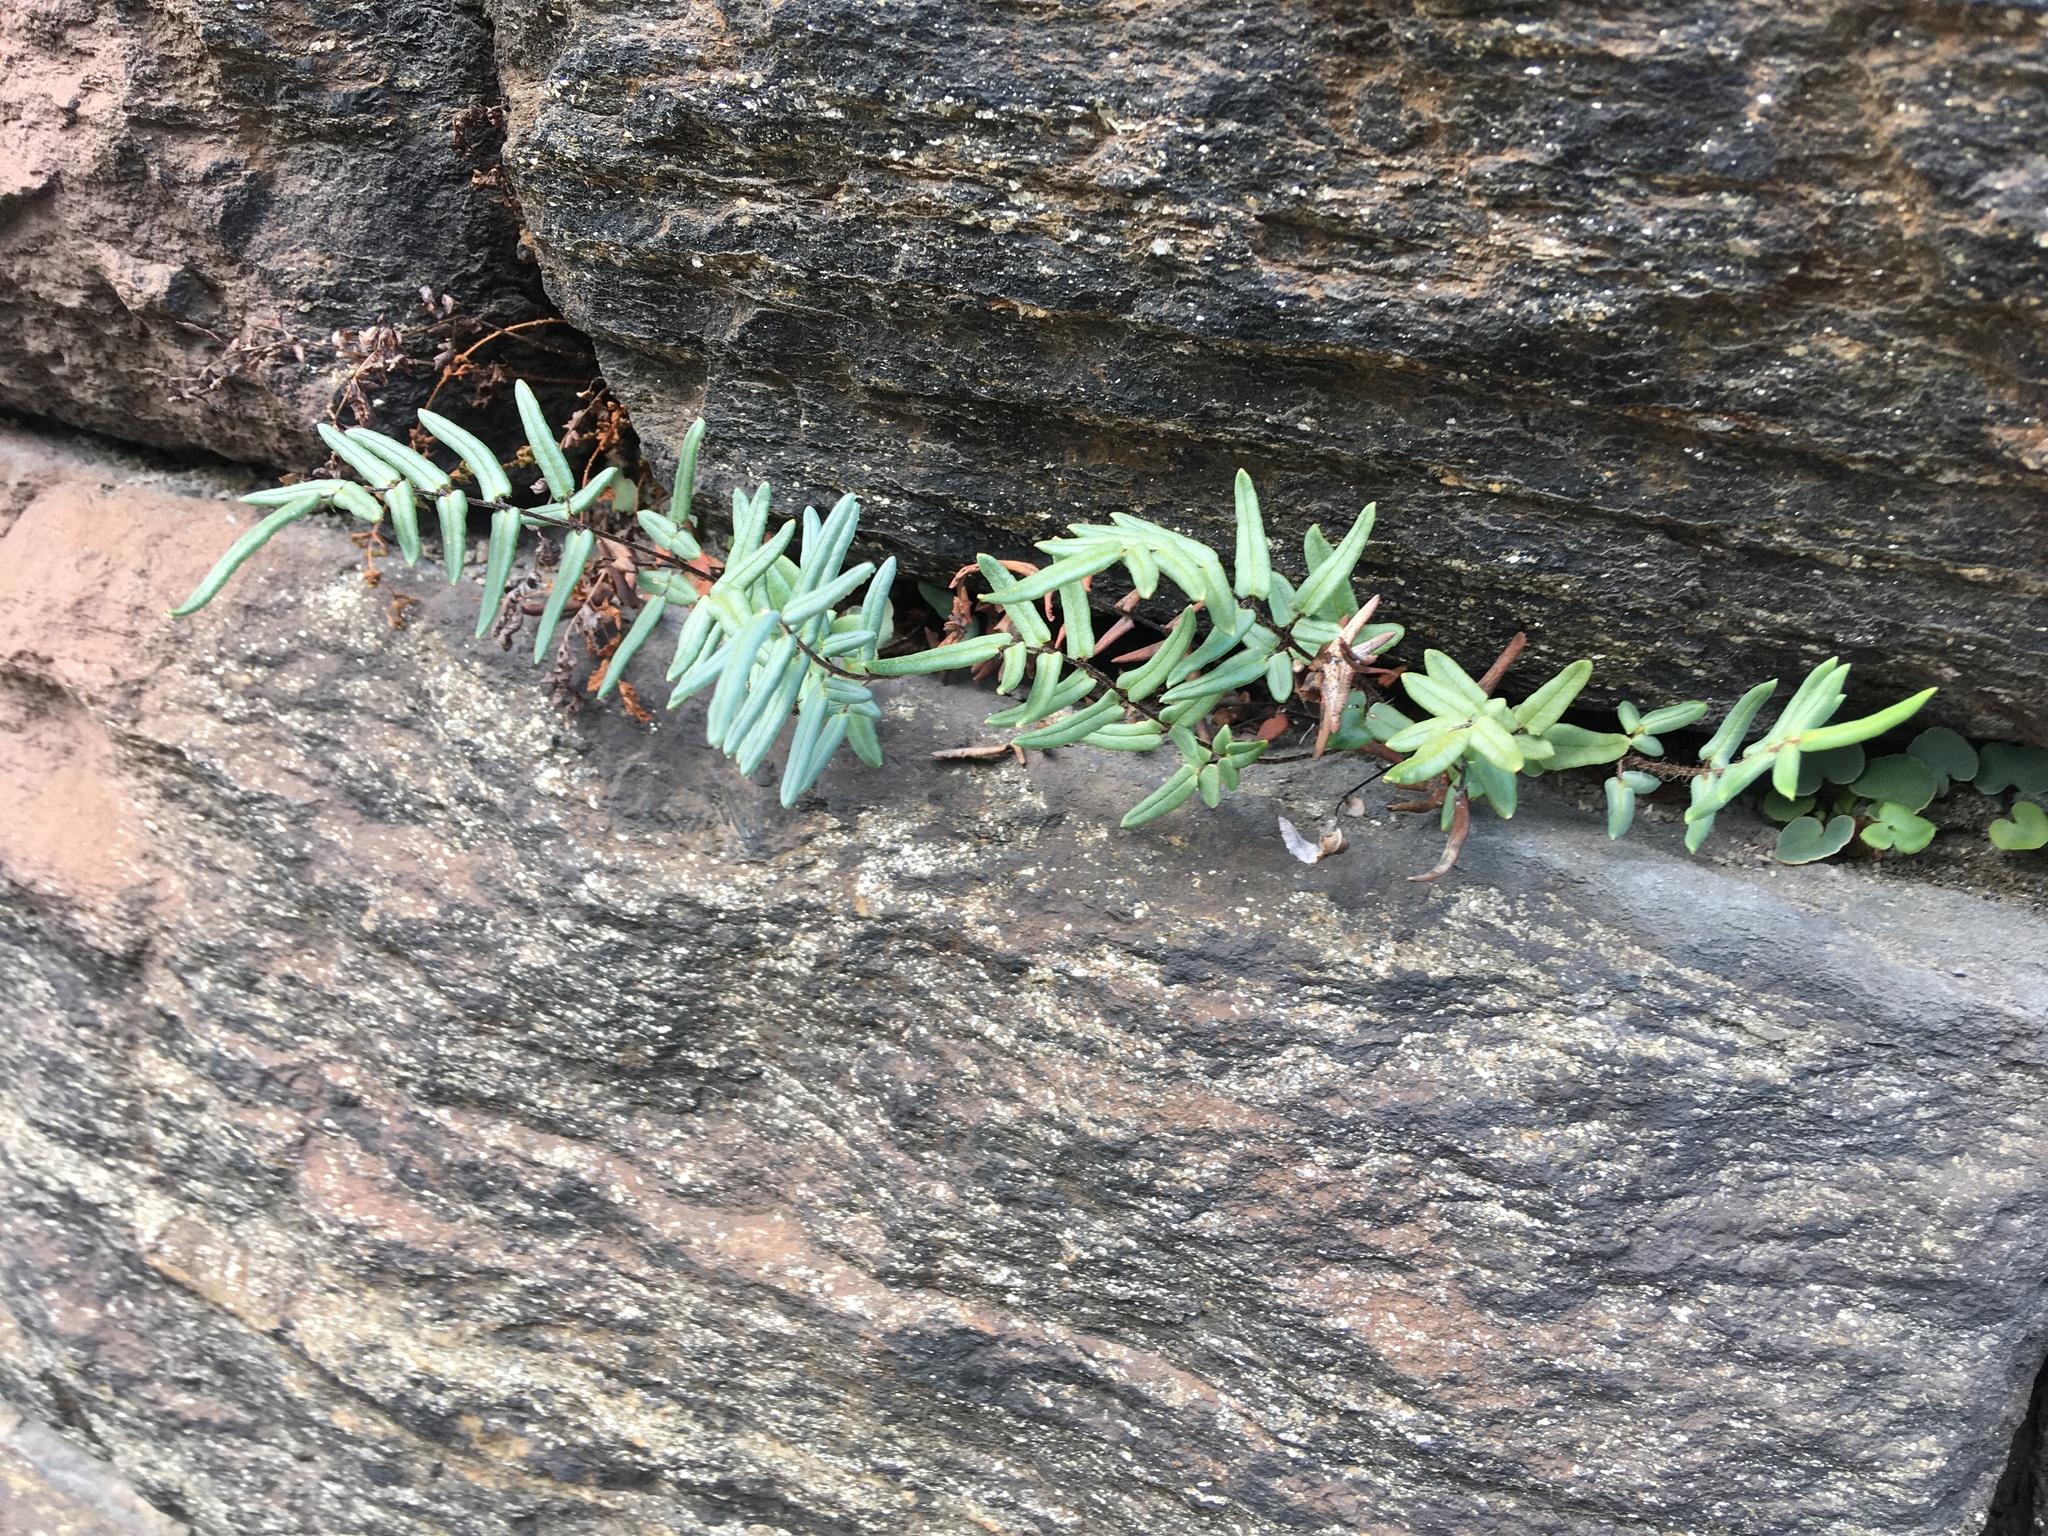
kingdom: Plantae
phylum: Tracheophyta
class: Polypodiopsida
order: Polypodiales
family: Pteridaceae
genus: Pellaea
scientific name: Pellaea atropurpurea
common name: Hairy cliffbrake
